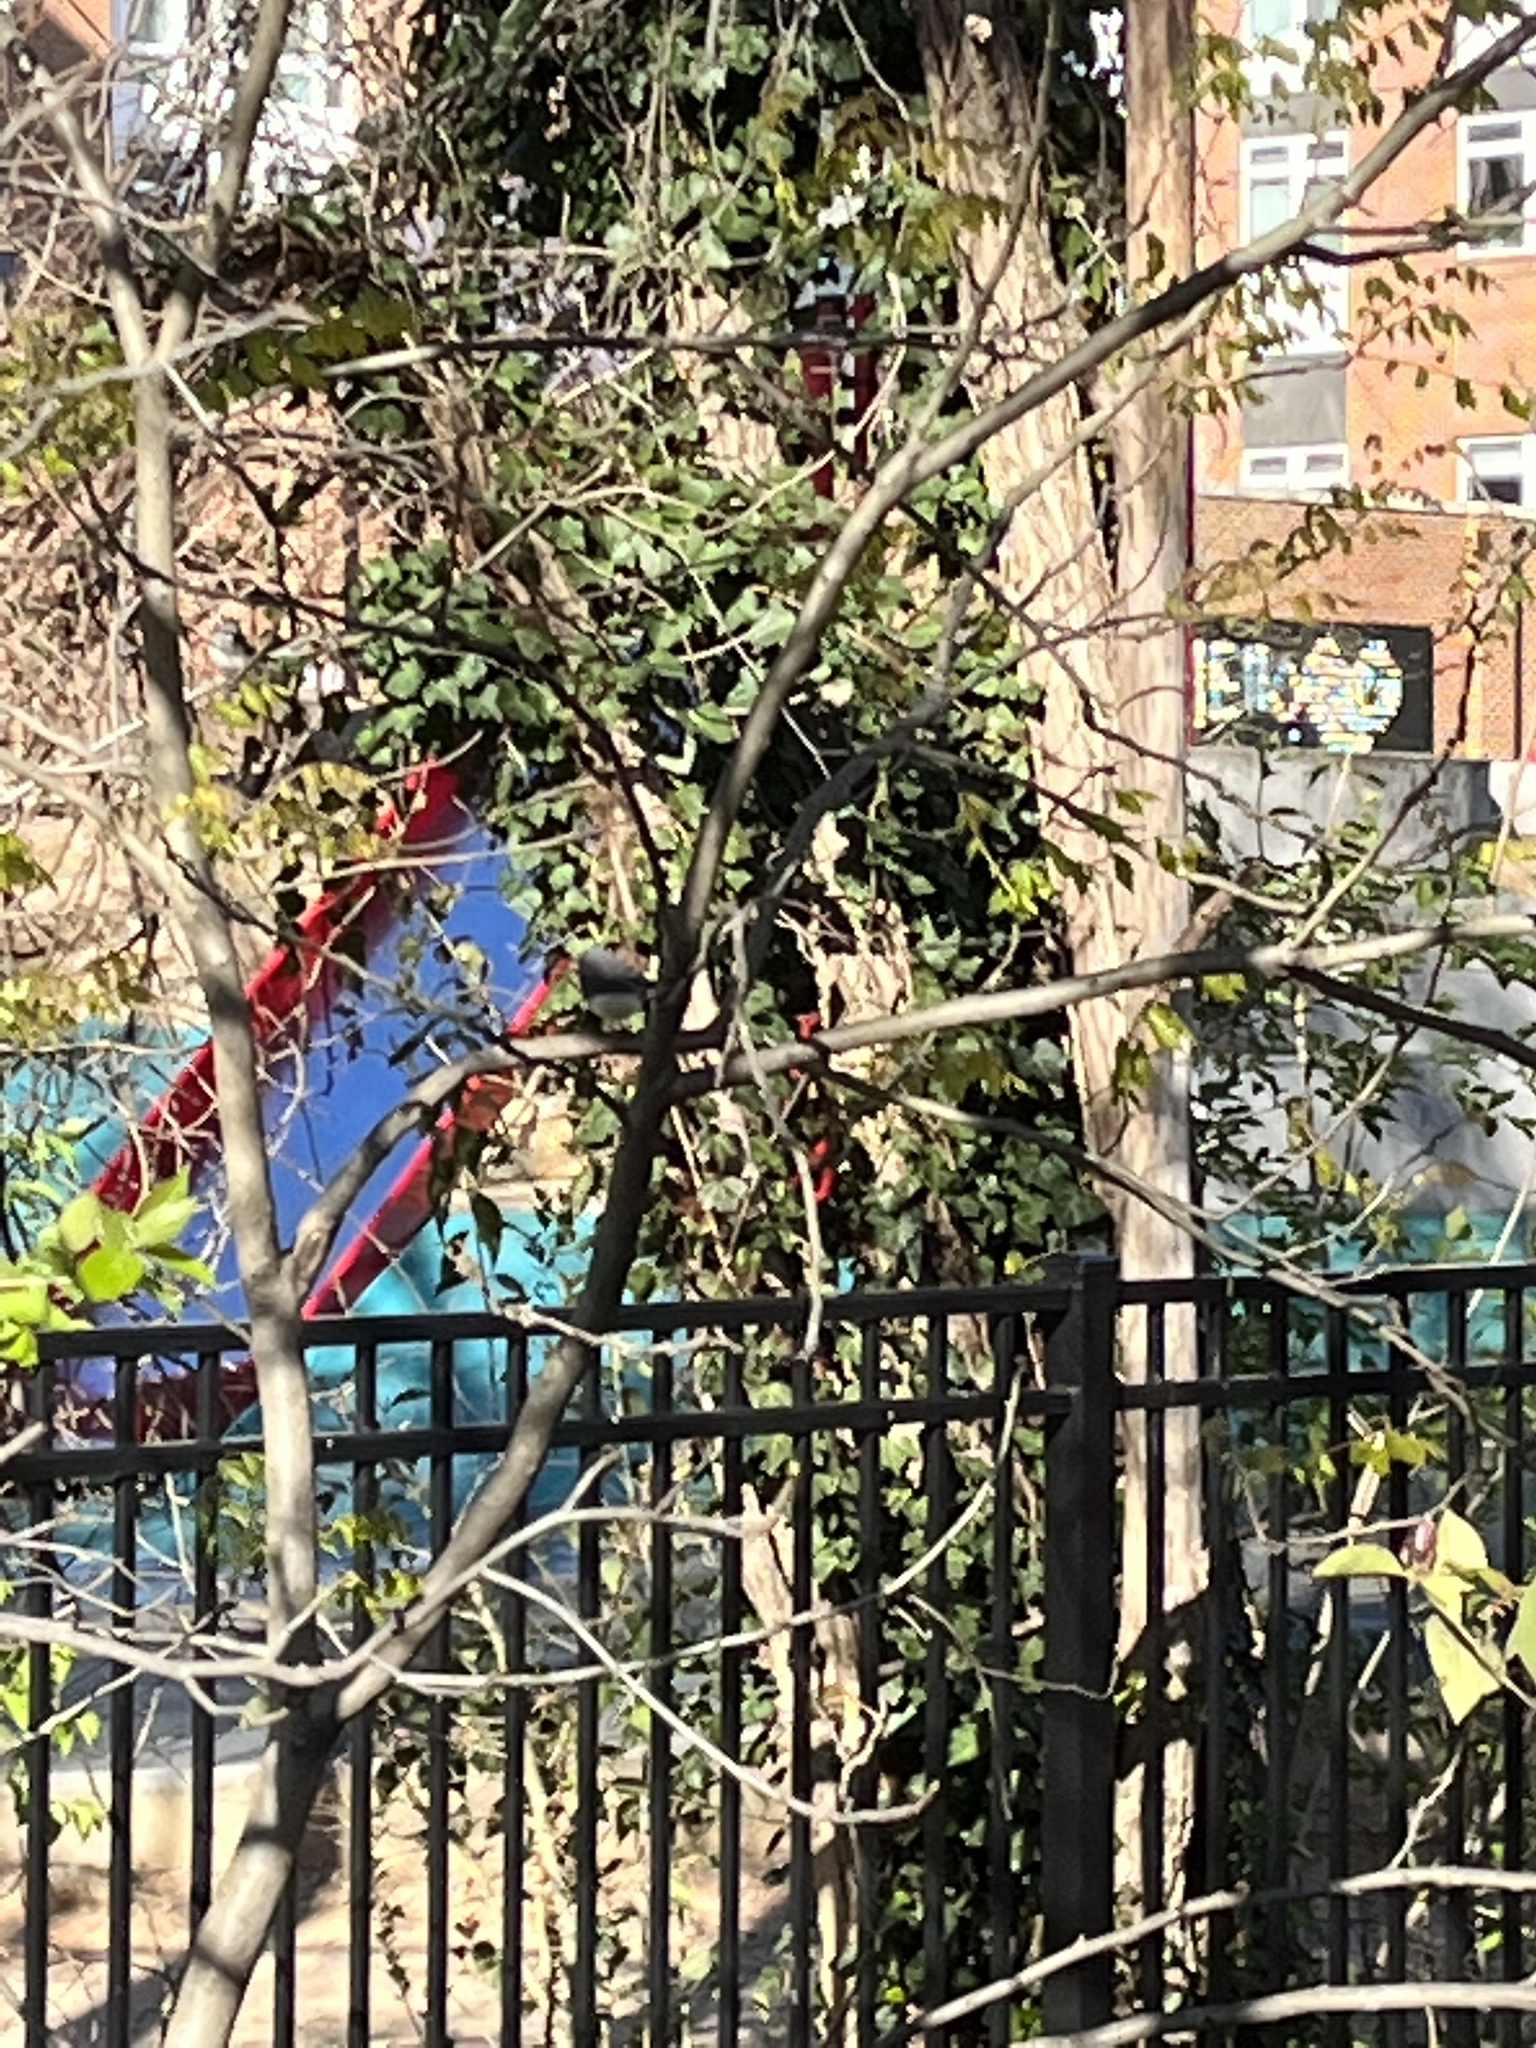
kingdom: Animalia
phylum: Chordata
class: Aves
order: Passeriformes
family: Passerellidae
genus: Junco
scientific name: Junco hyemalis
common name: Dark-eyed junco
